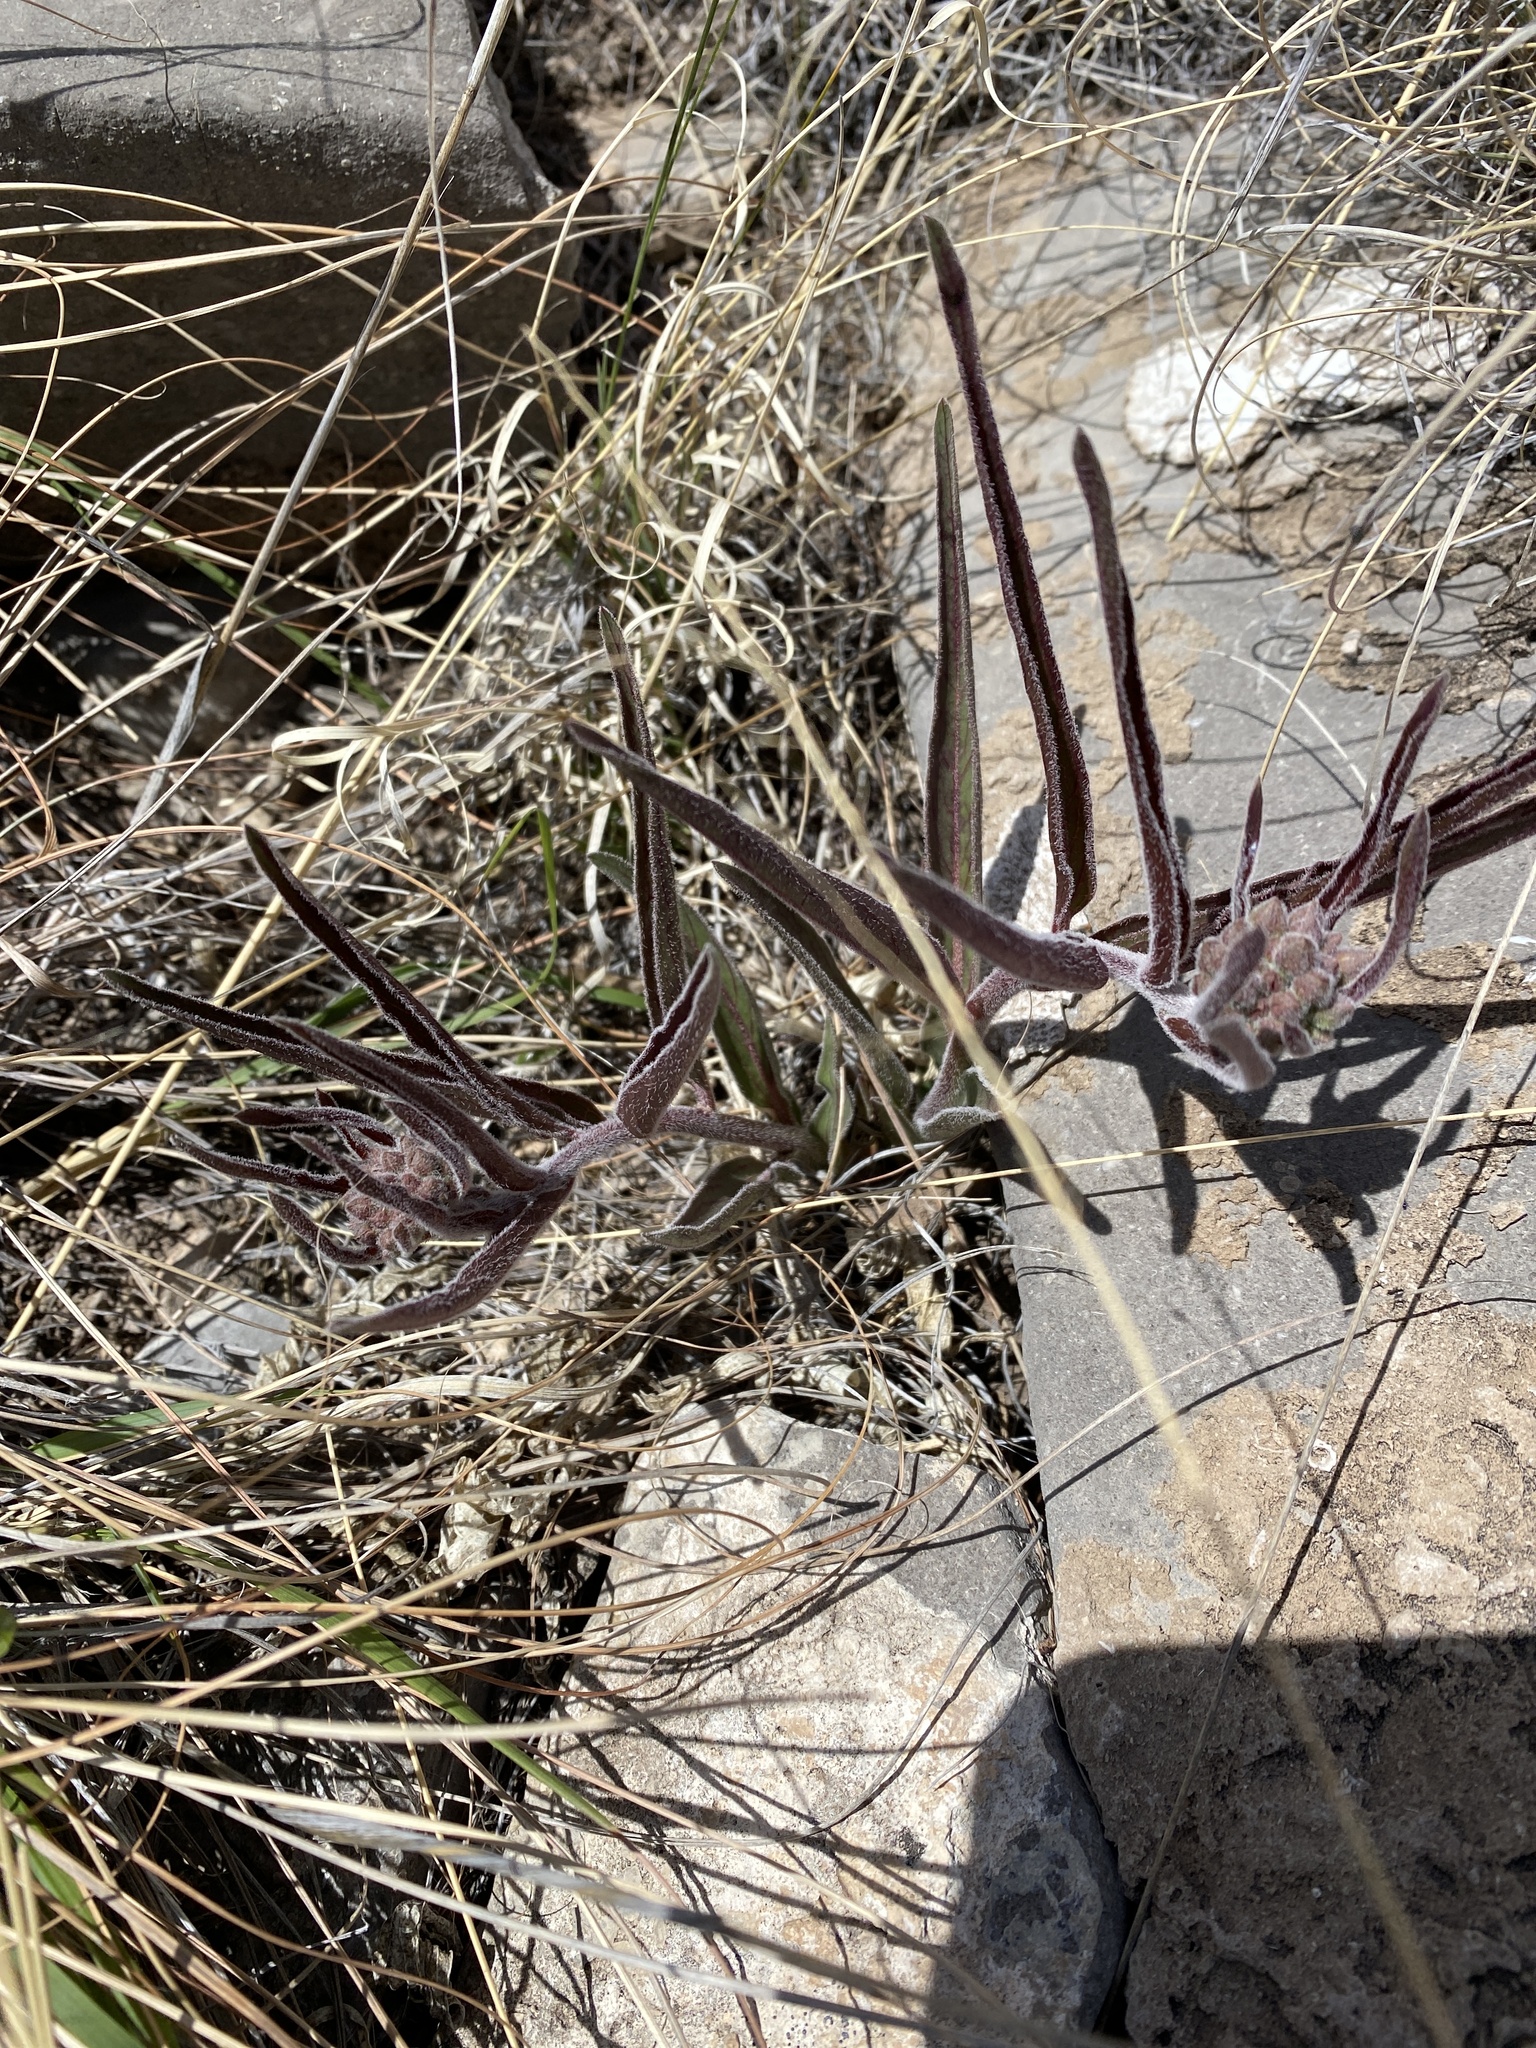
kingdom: Plantae
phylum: Tracheophyta
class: Magnoliopsida
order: Gentianales
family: Apocynaceae
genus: Asclepias
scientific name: Asclepias asperula
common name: Antelope horns
